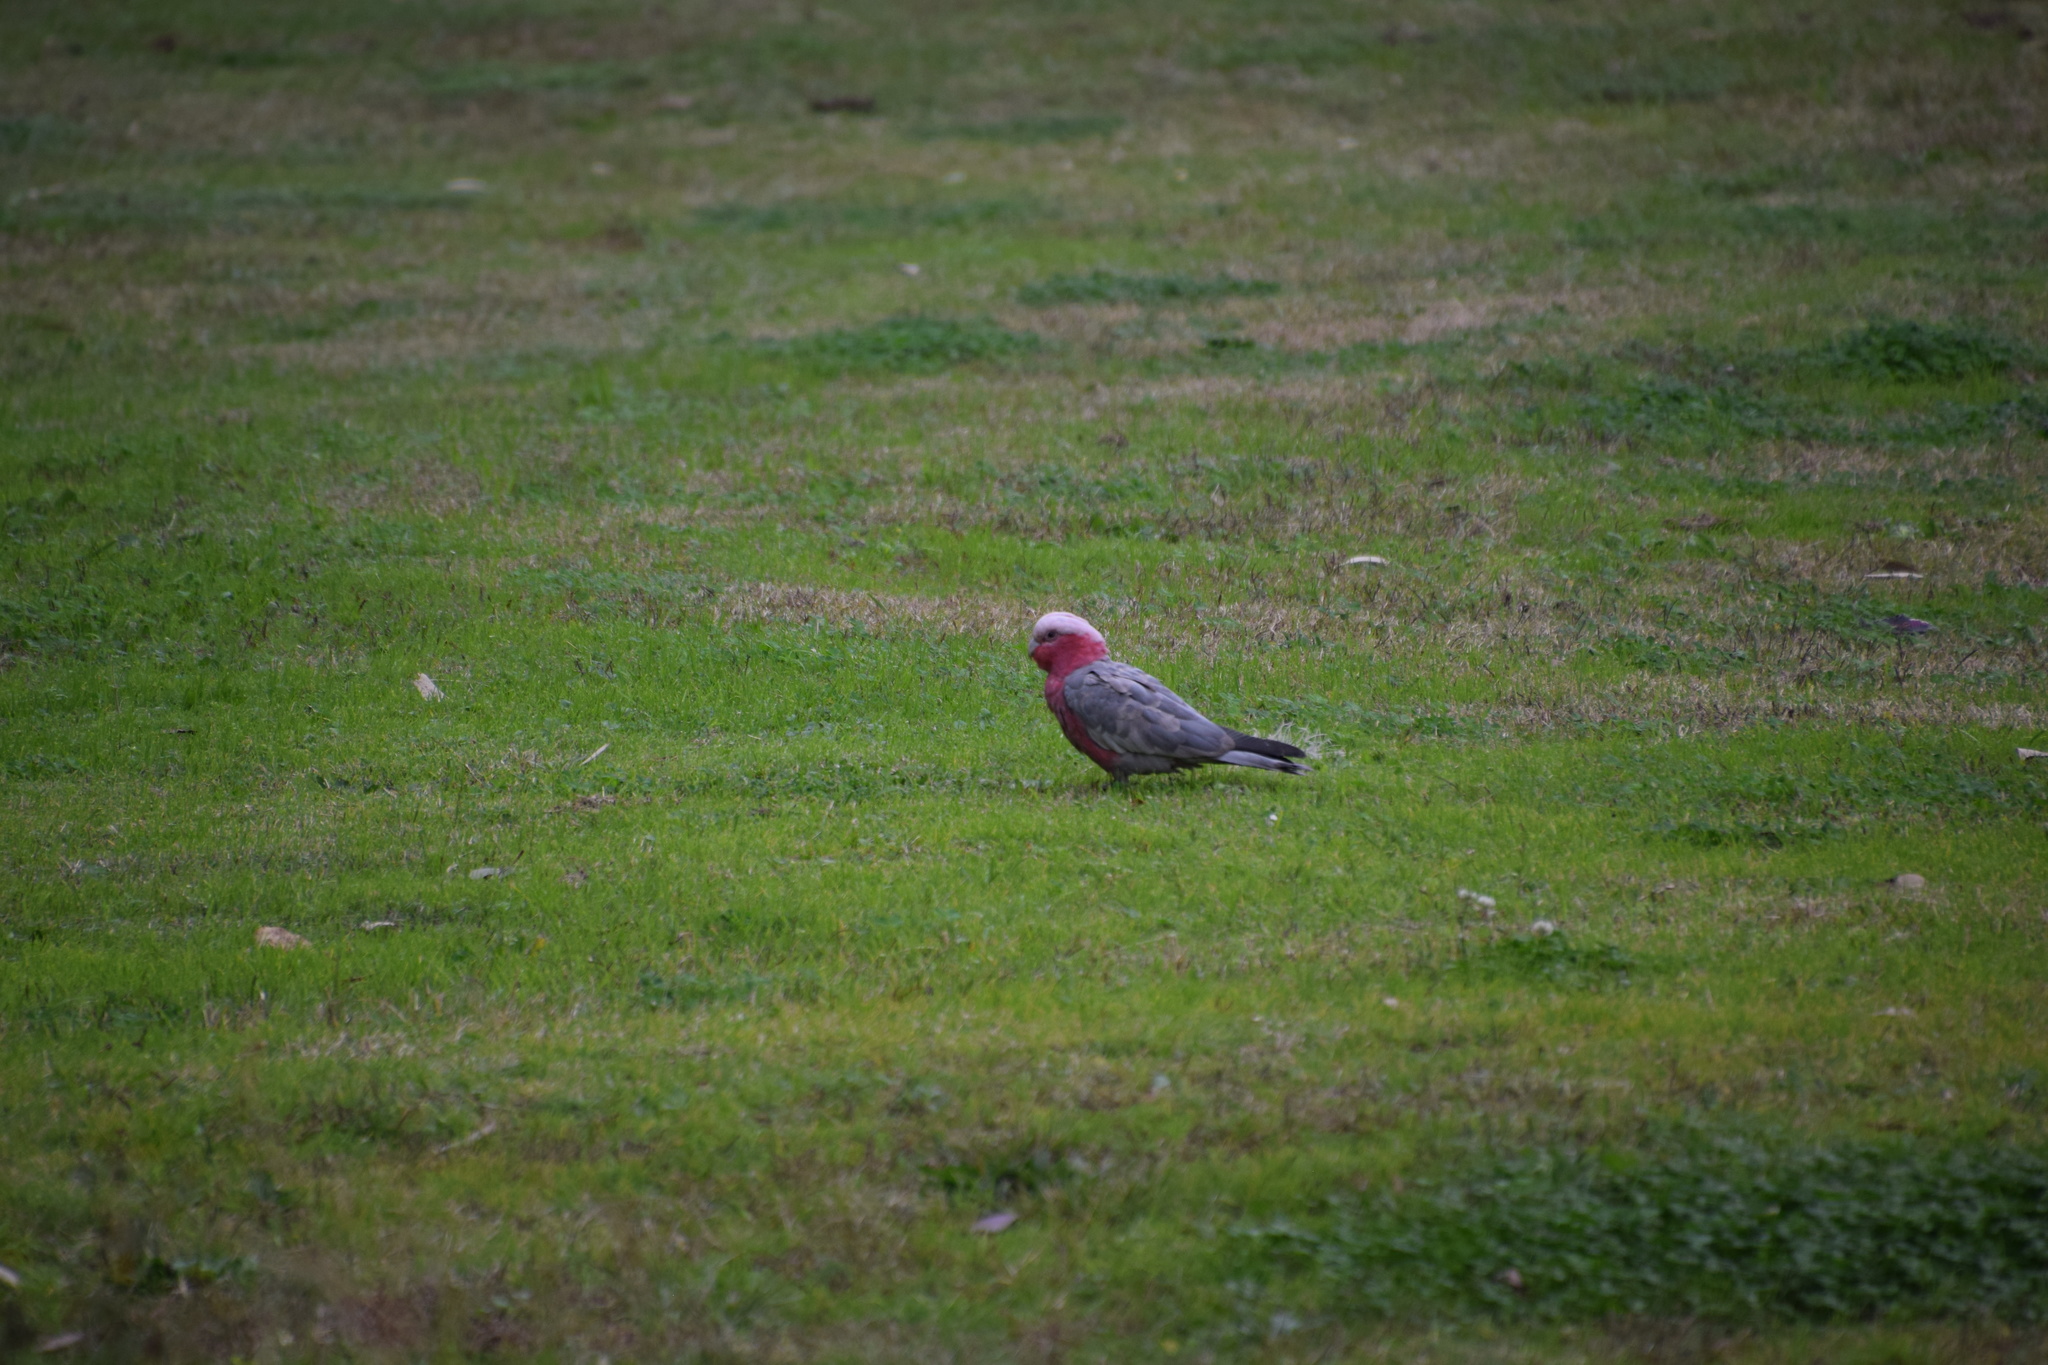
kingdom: Animalia
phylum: Chordata
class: Aves
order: Psittaciformes
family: Psittacidae
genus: Eolophus
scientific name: Eolophus roseicapilla
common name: Galah
